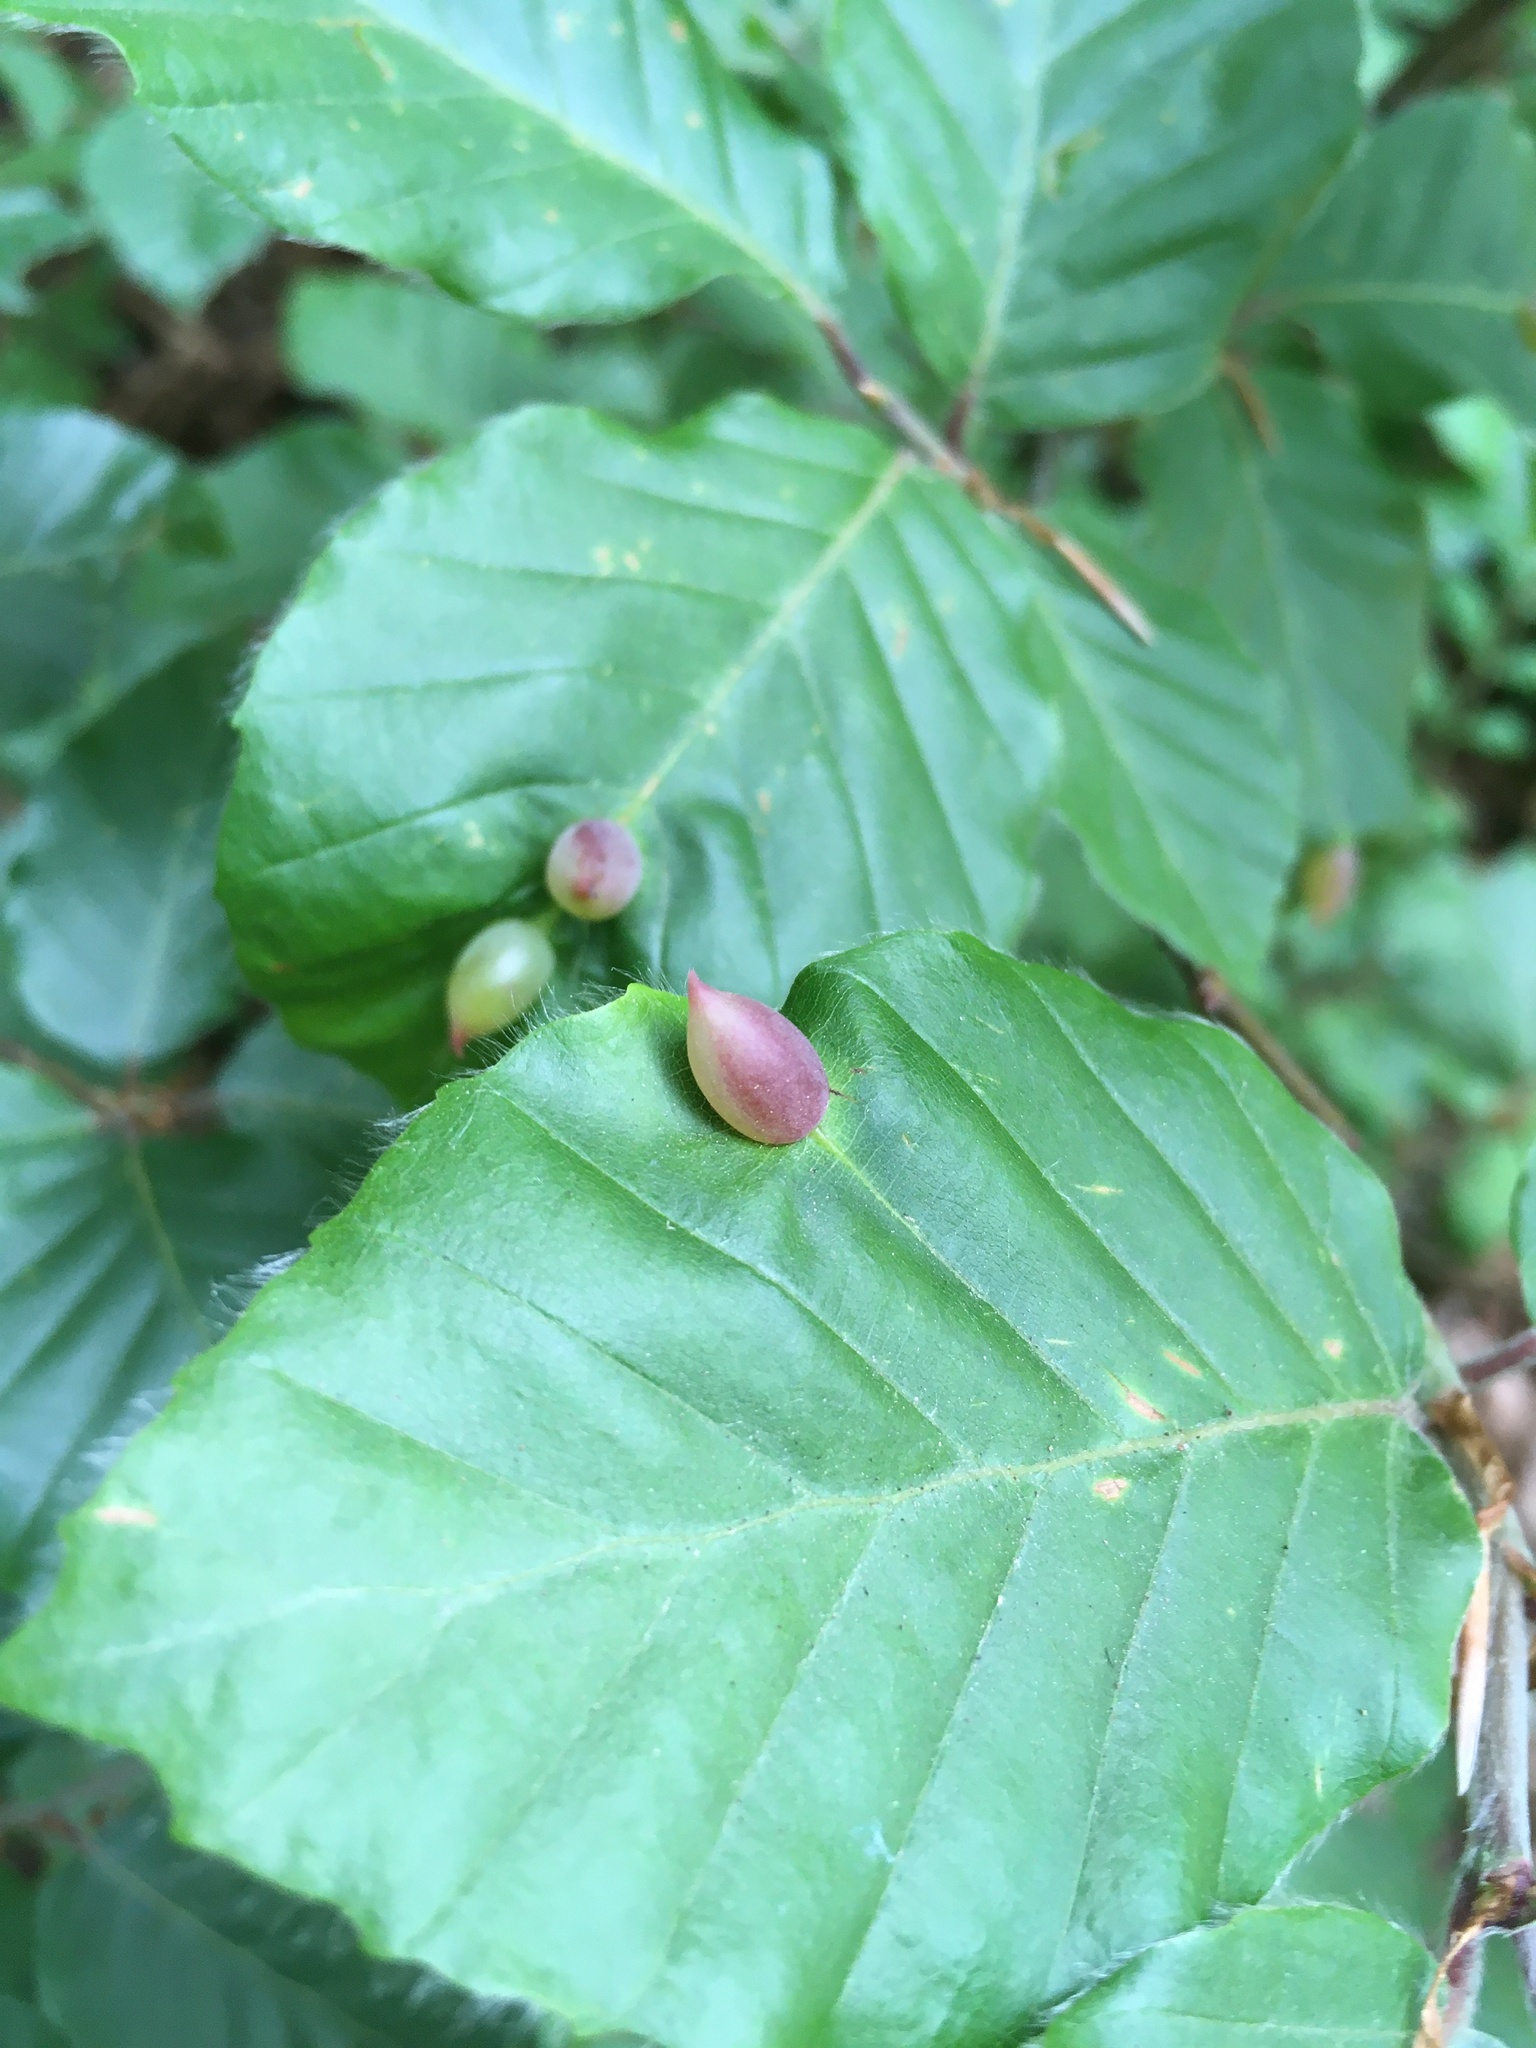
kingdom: Animalia
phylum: Arthropoda
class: Insecta
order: Diptera
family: Cecidomyiidae
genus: Mikiola
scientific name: Mikiola fagi
